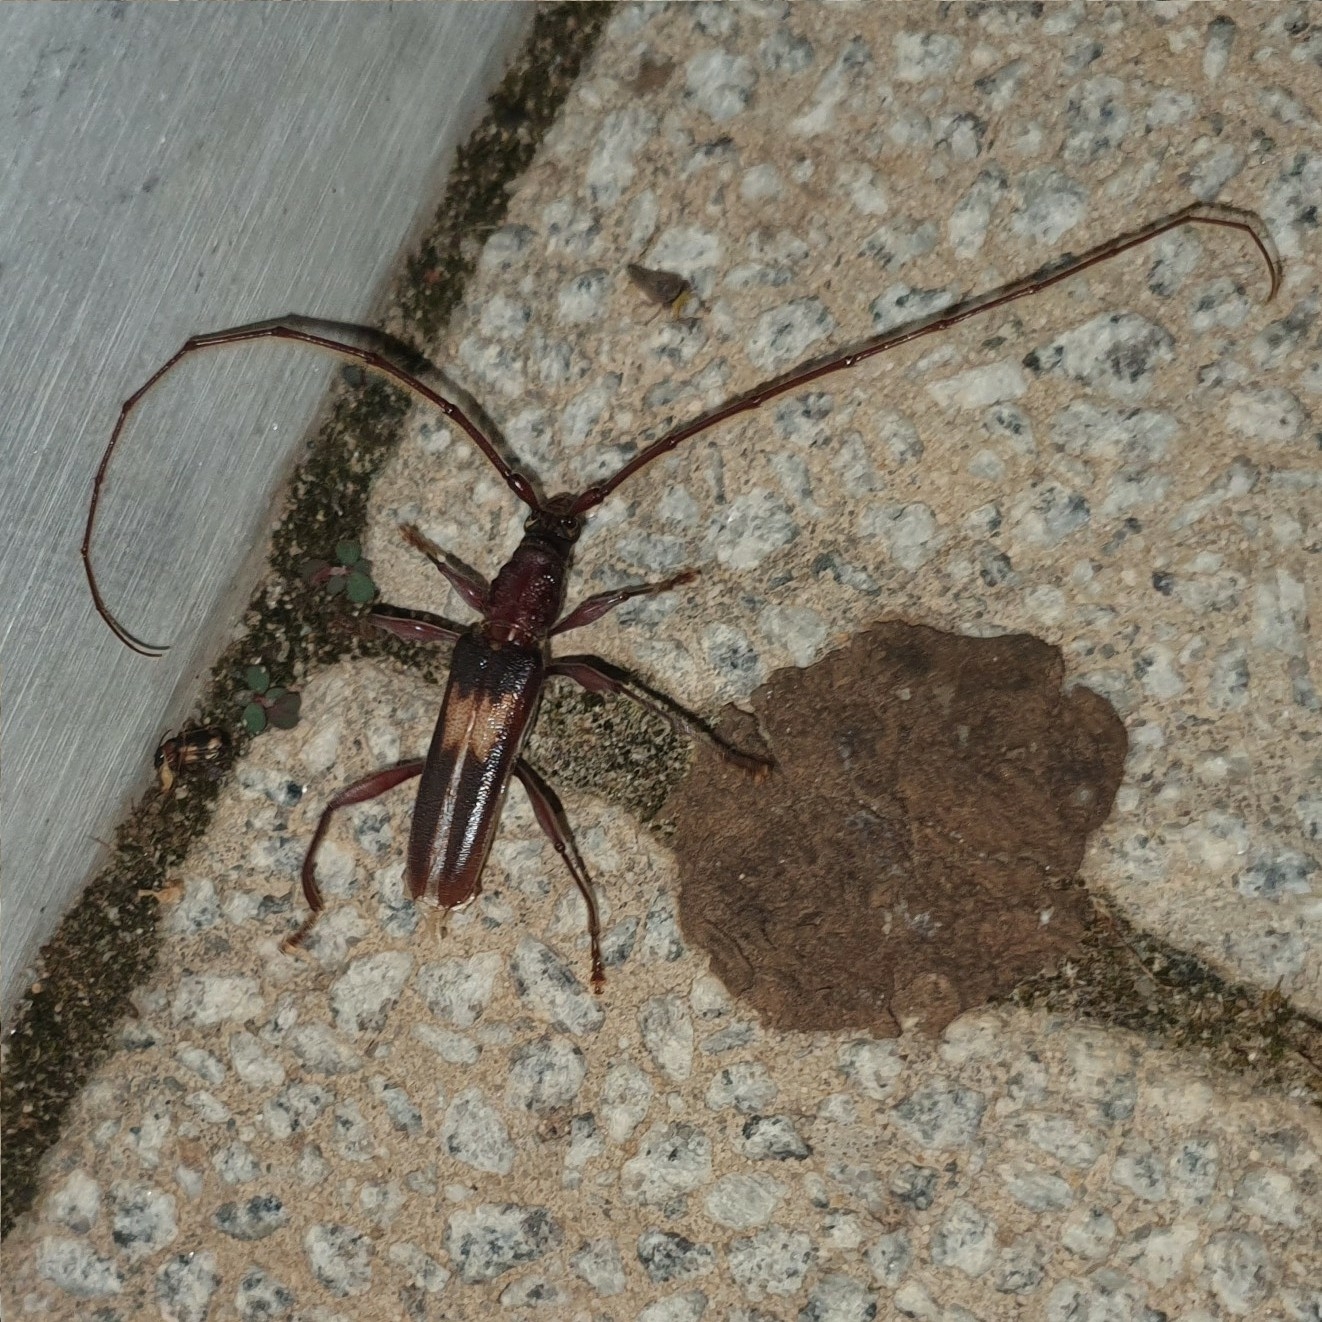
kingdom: Animalia
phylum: Arthropoda
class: Insecta
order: Coleoptera
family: Cerambycidae
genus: Epithora
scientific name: Epithora dorsalis
